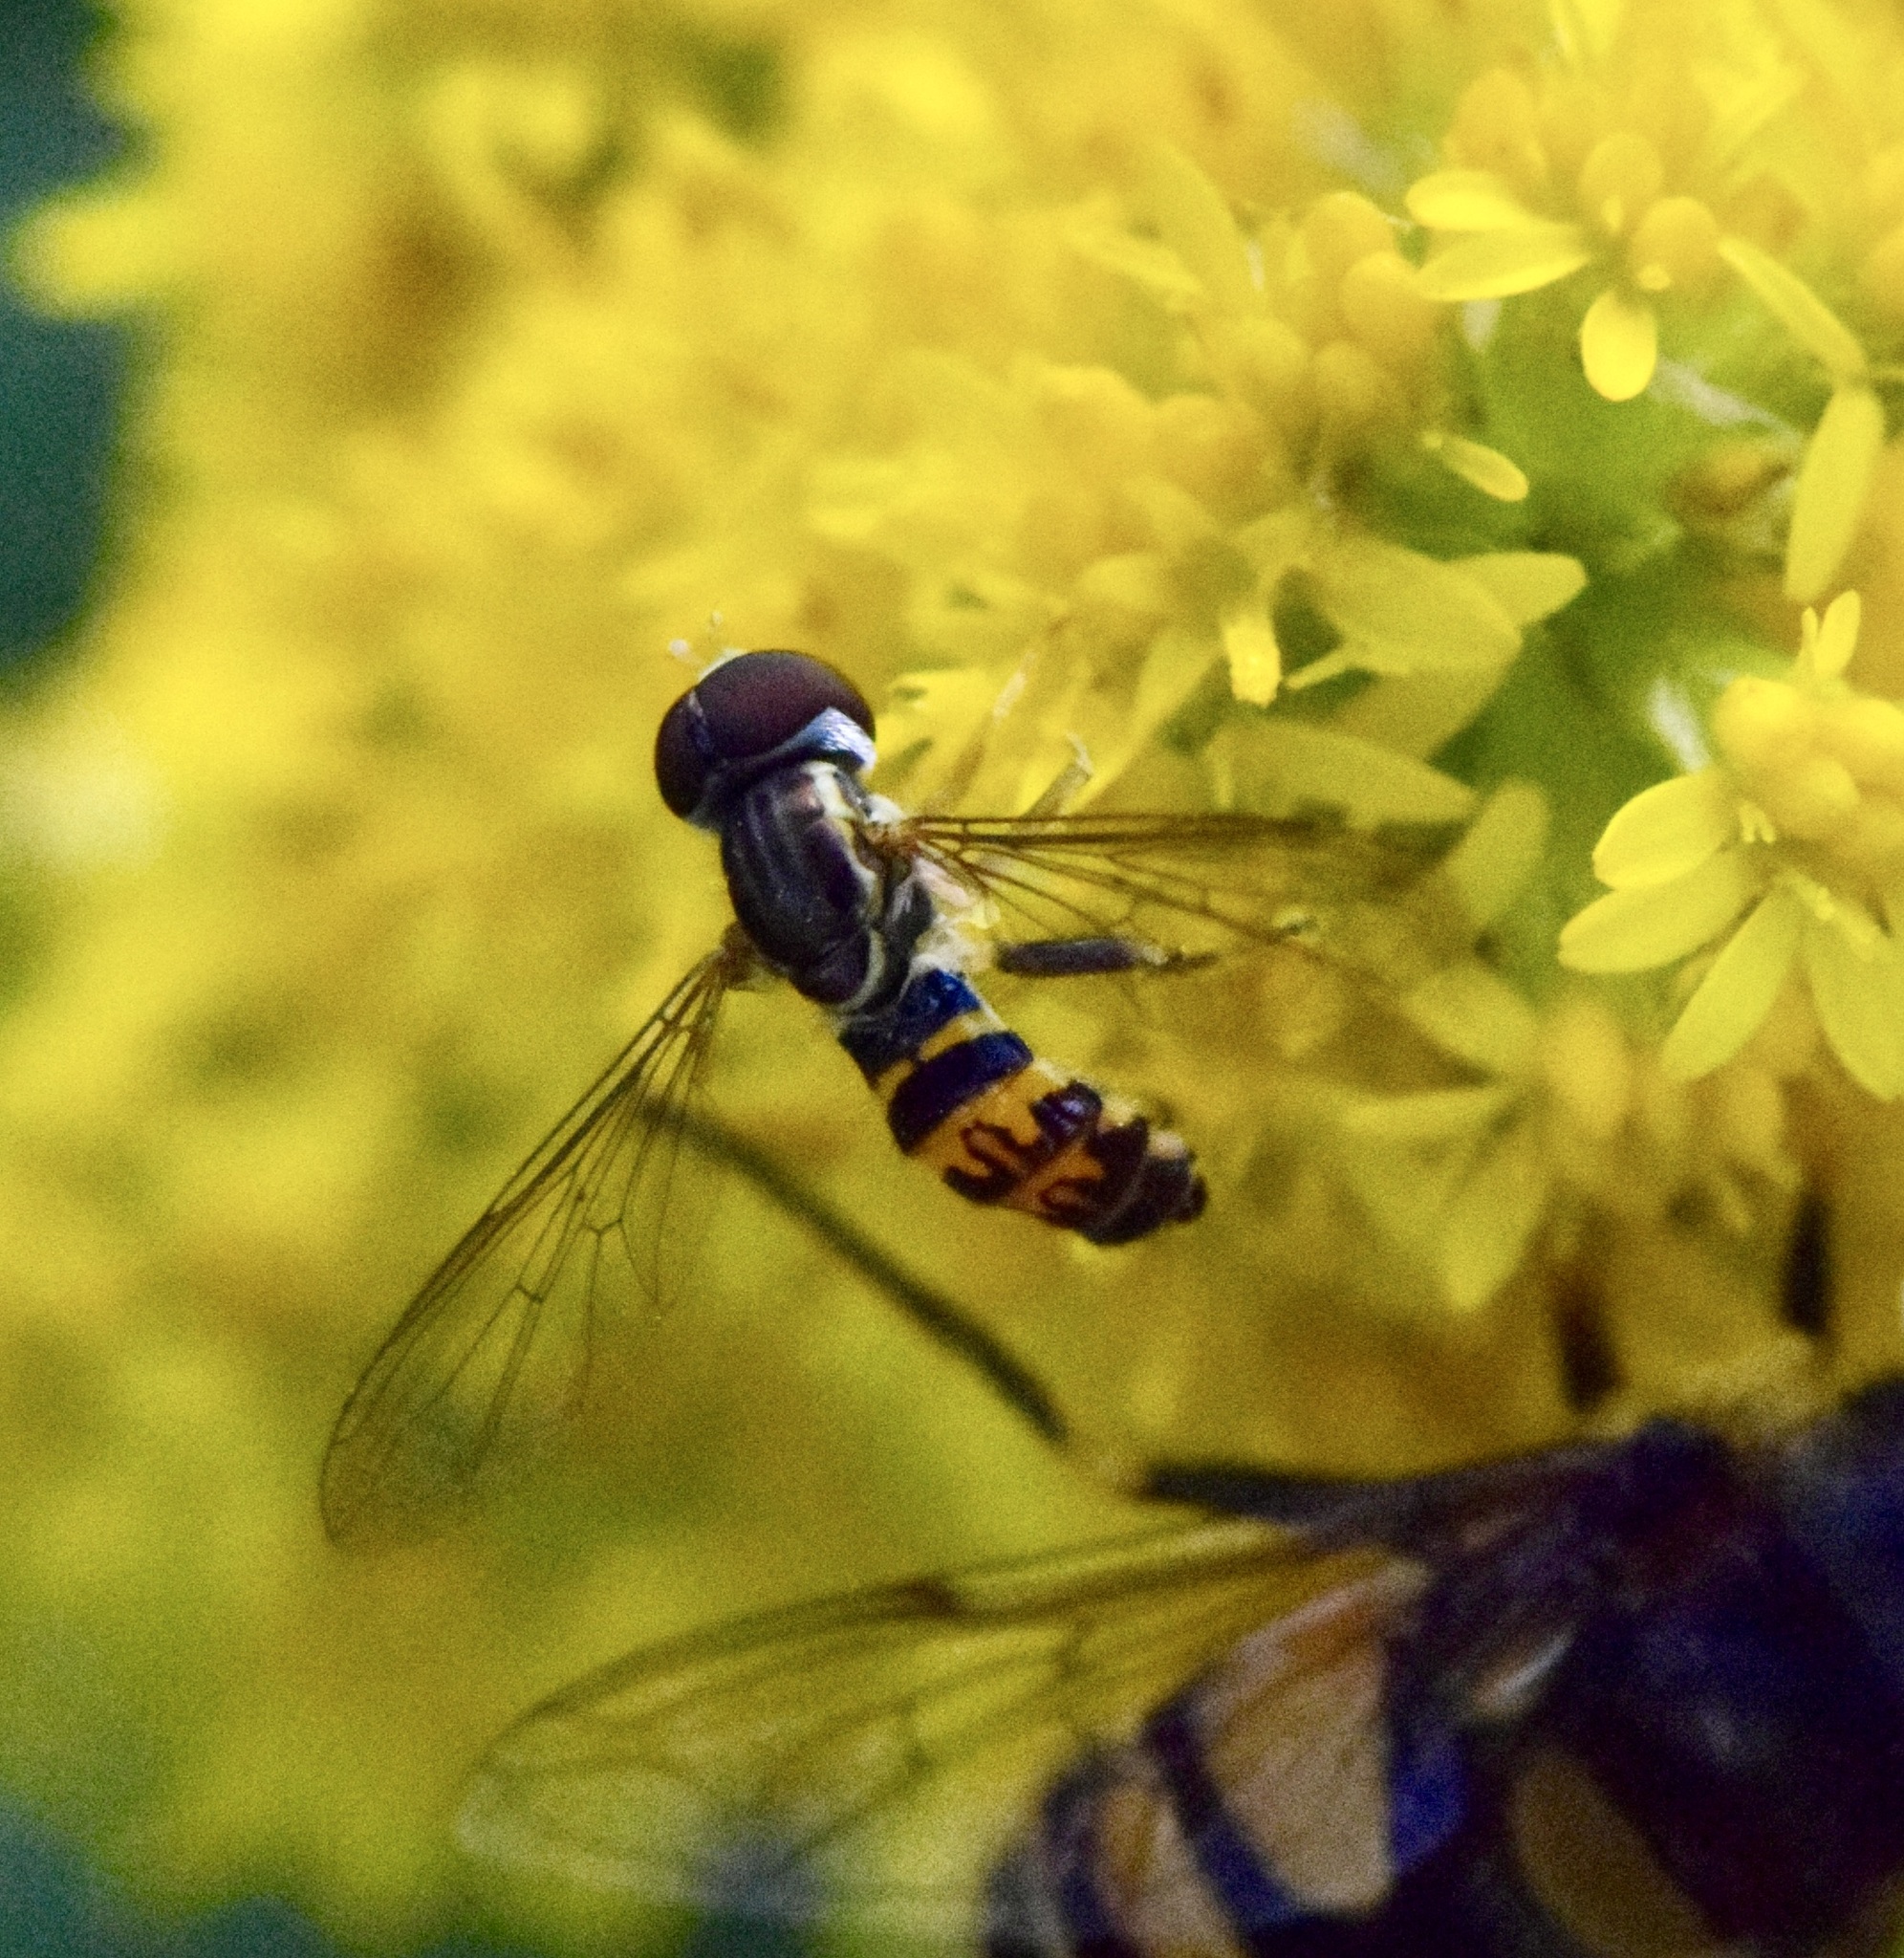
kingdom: Animalia
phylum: Arthropoda
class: Insecta
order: Diptera
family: Syrphidae
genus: Toxomerus
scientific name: Toxomerus geminatus
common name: Eastern calligrapher
